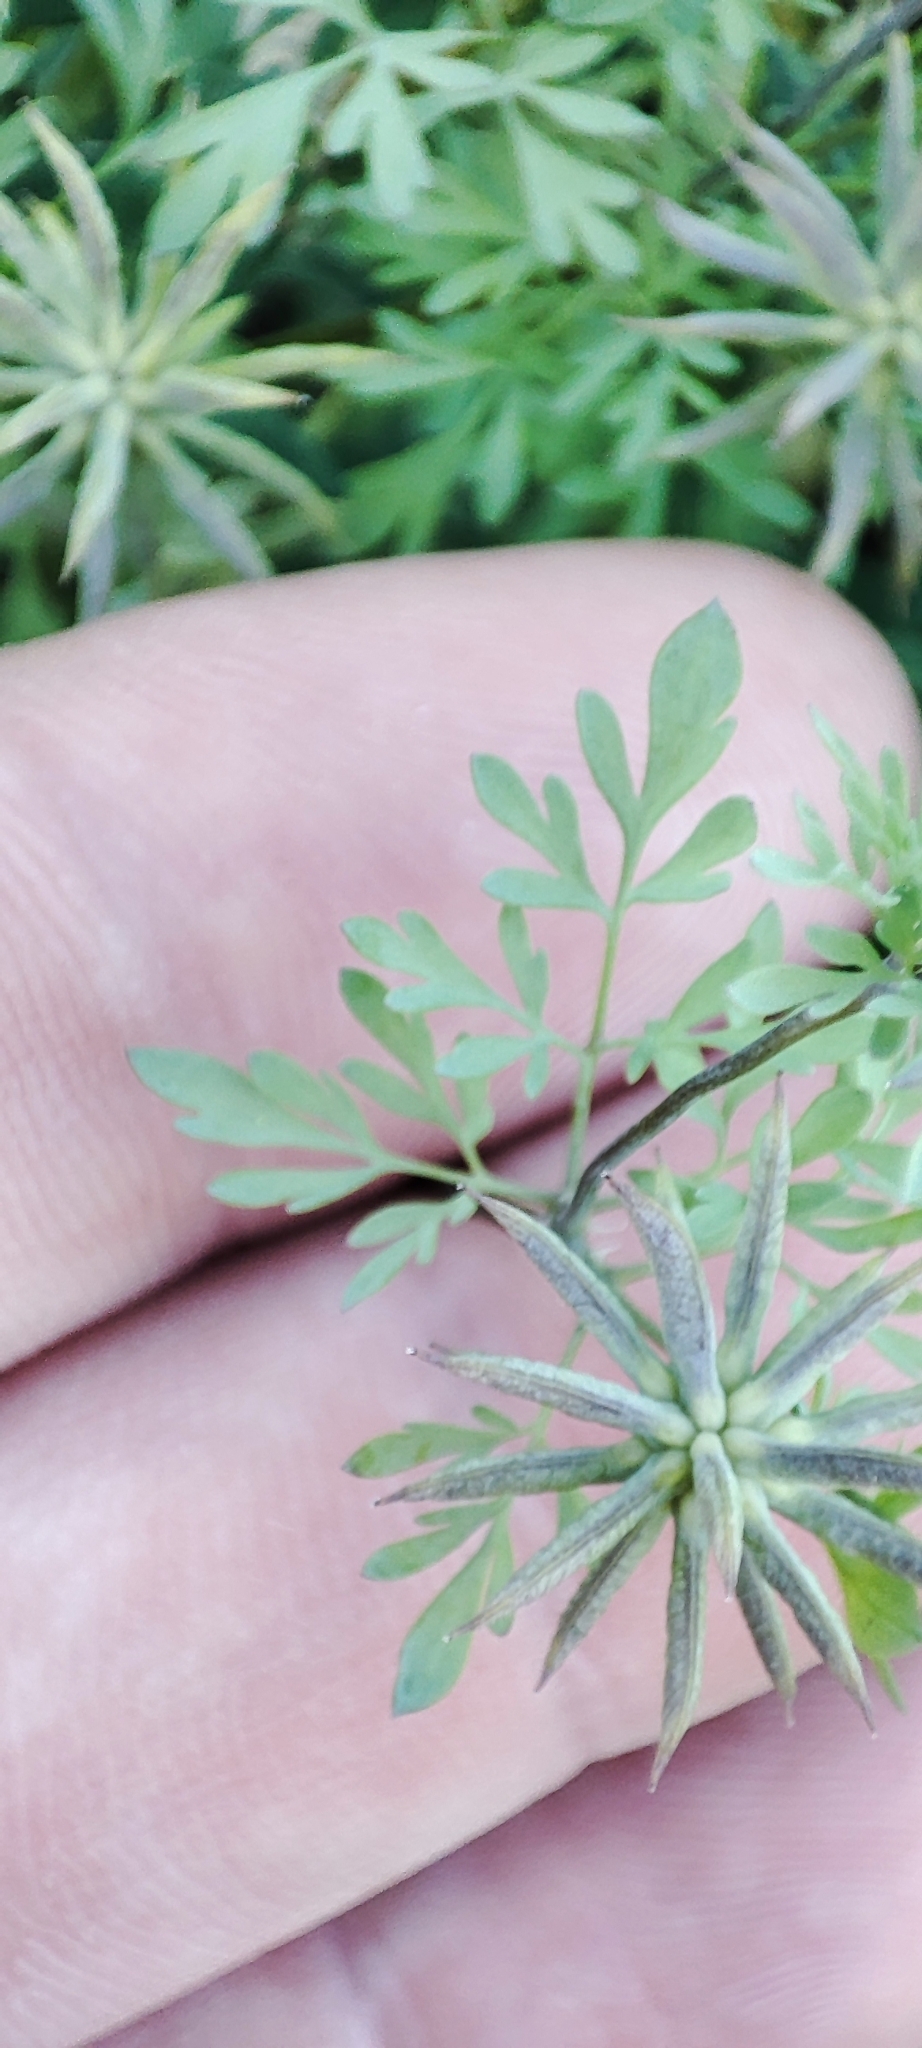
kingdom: Plantae
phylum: Tracheophyta
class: Magnoliopsida
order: Ranunculales
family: Ranunculaceae
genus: Leptopyrum
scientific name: Leptopyrum fumarioides
